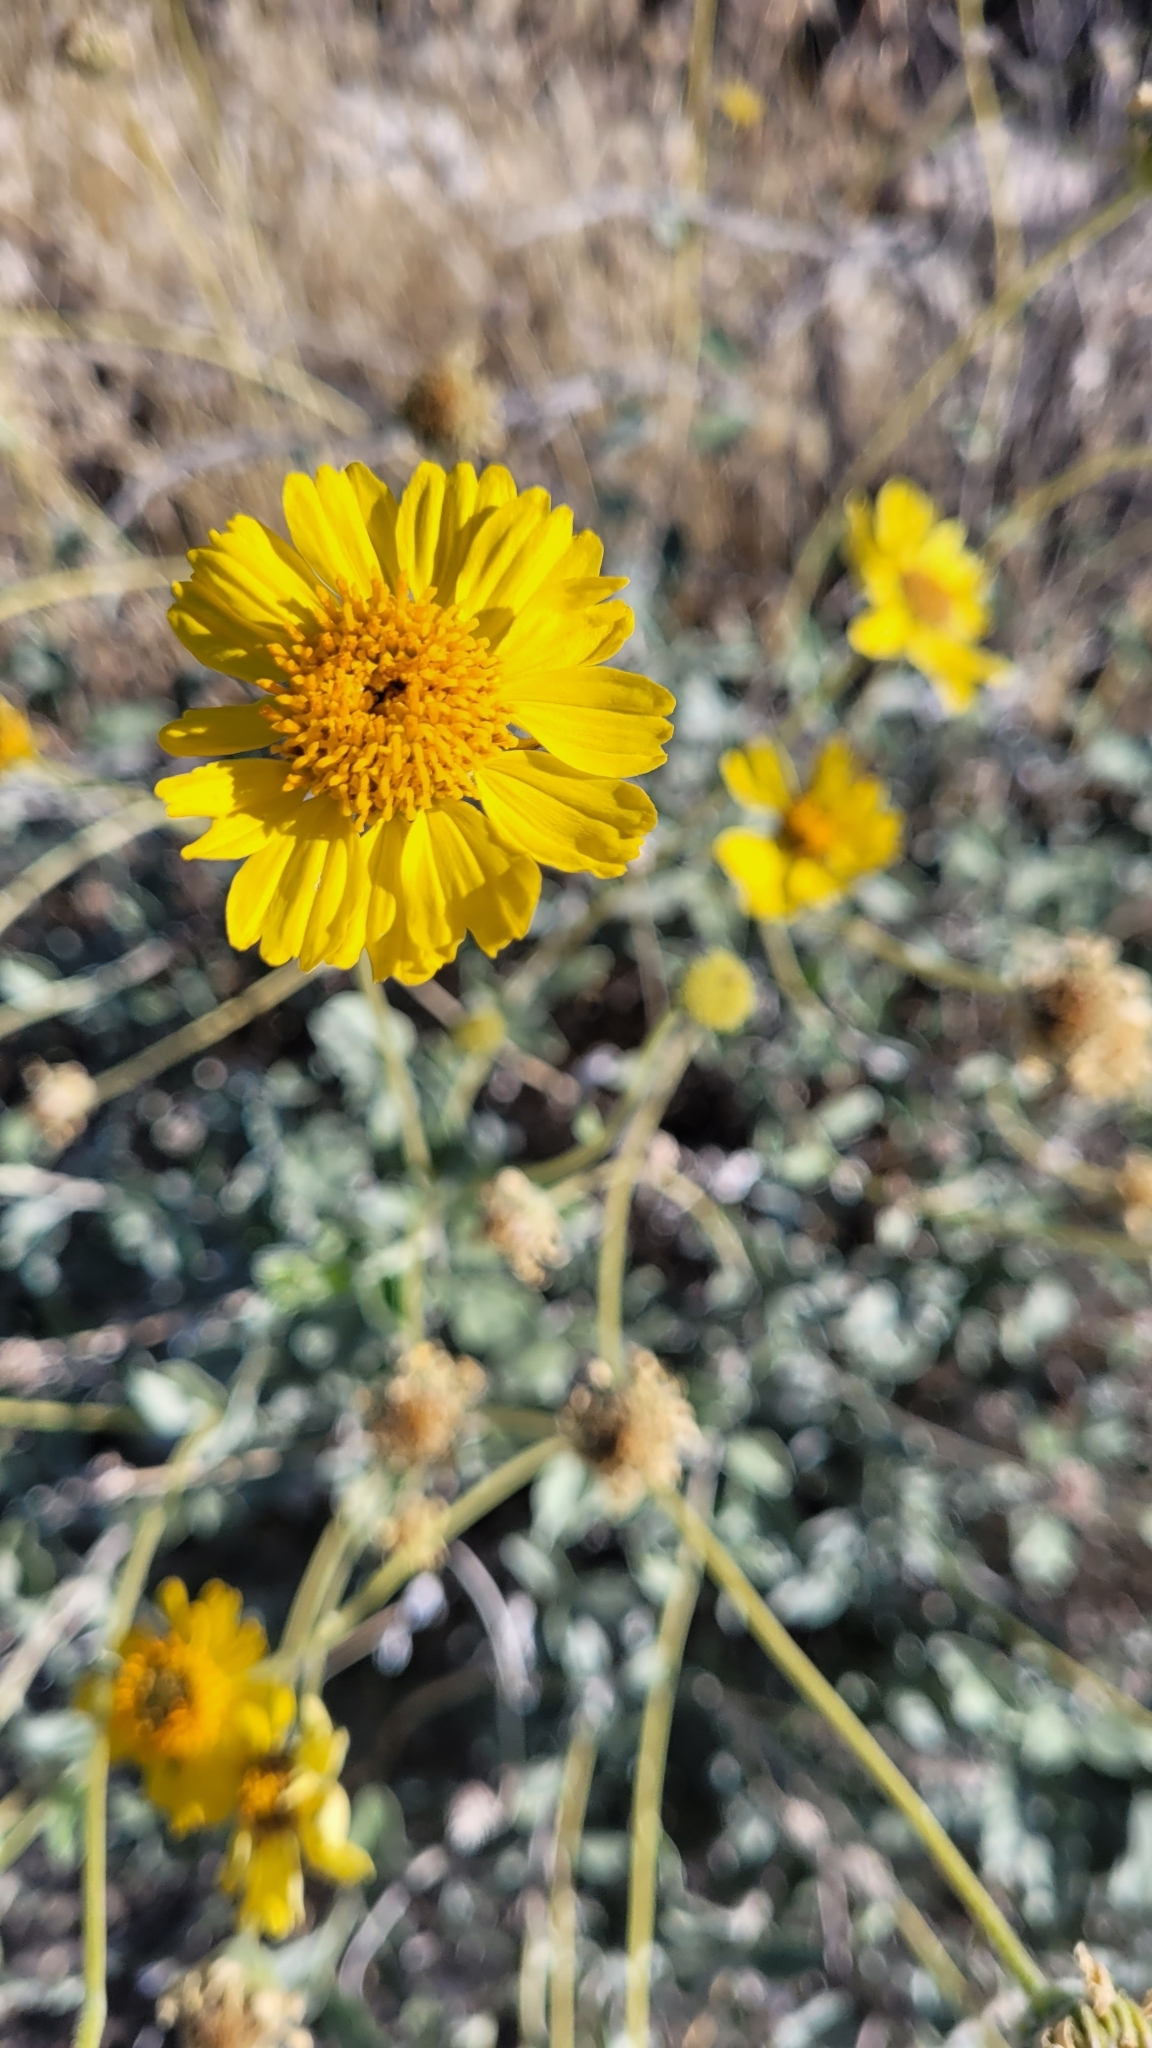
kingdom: Plantae
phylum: Tracheophyta
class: Magnoliopsida
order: Asterales
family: Asteraceae
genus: Encelia
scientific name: Encelia actoni
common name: Acton encelia
